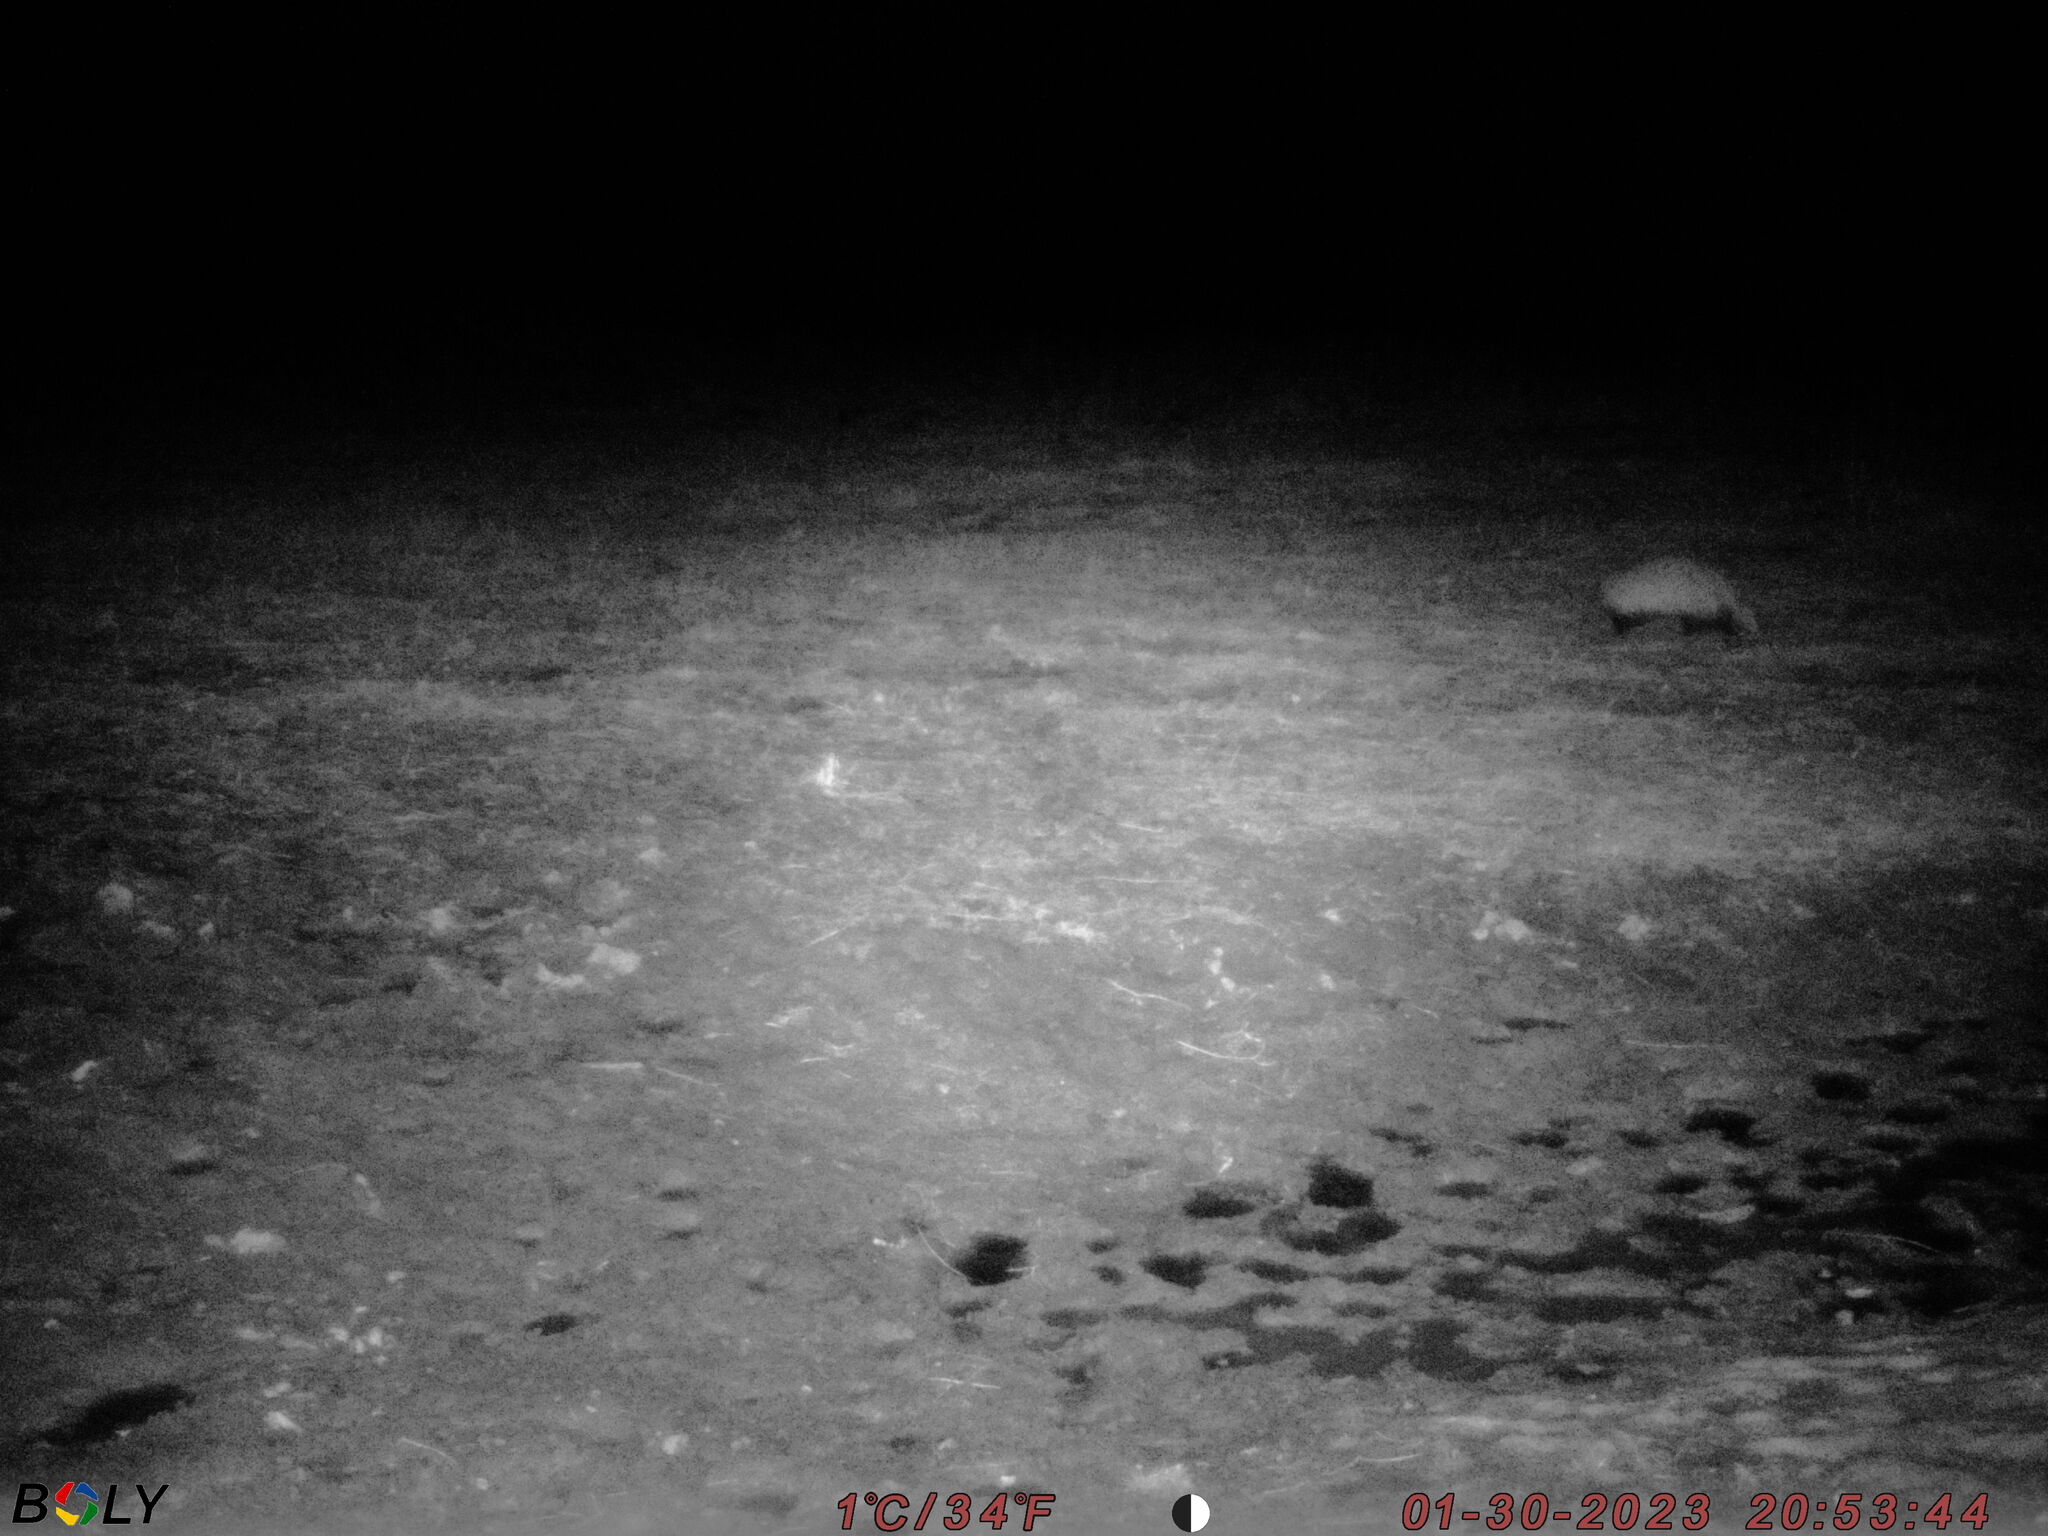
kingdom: Animalia
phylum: Chordata
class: Mammalia
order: Carnivora
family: Mustelidae
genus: Meles
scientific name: Meles leucurus
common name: Asian badger
